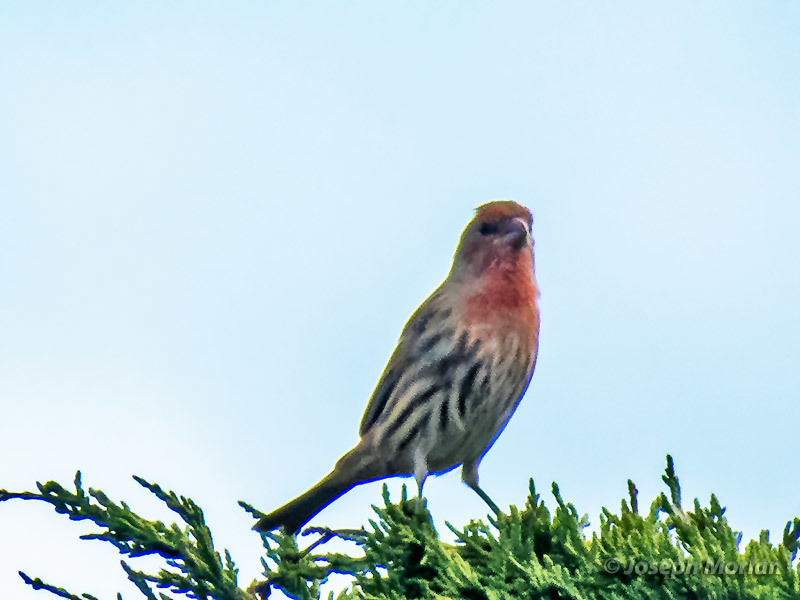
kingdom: Animalia
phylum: Chordata
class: Aves
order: Passeriformes
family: Fringillidae
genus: Haemorhous
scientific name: Haemorhous mexicanus
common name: House finch
